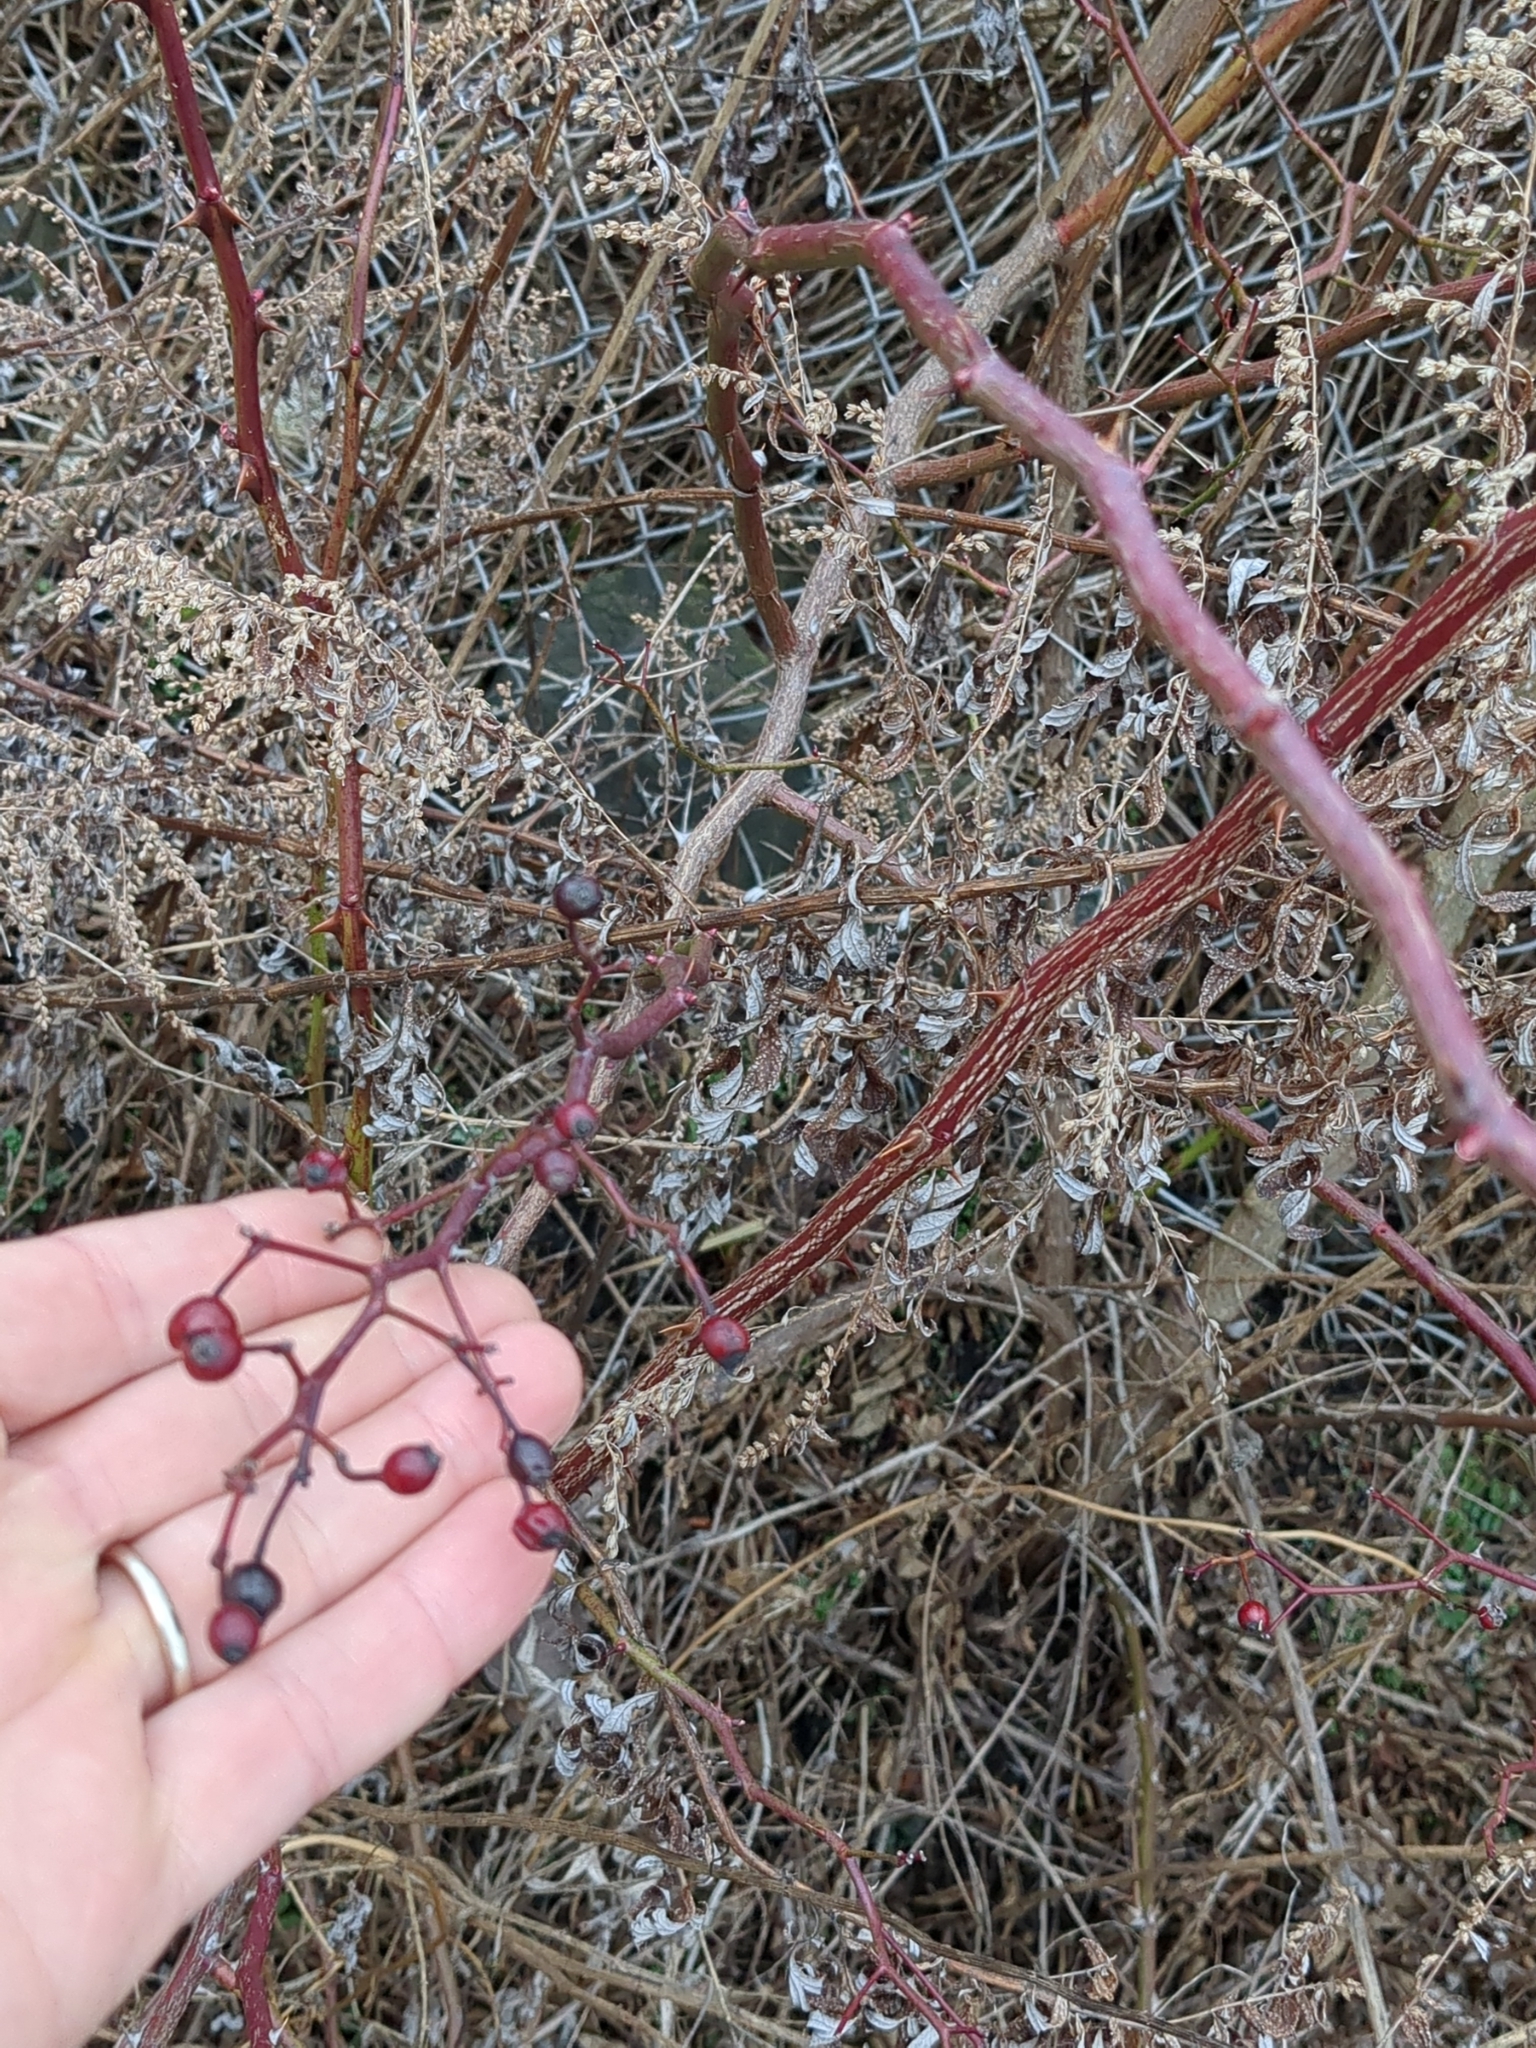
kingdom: Plantae
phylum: Tracheophyta
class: Magnoliopsida
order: Rosales
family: Rosaceae
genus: Rosa
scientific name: Rosa multiflora
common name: Multiflora rose
